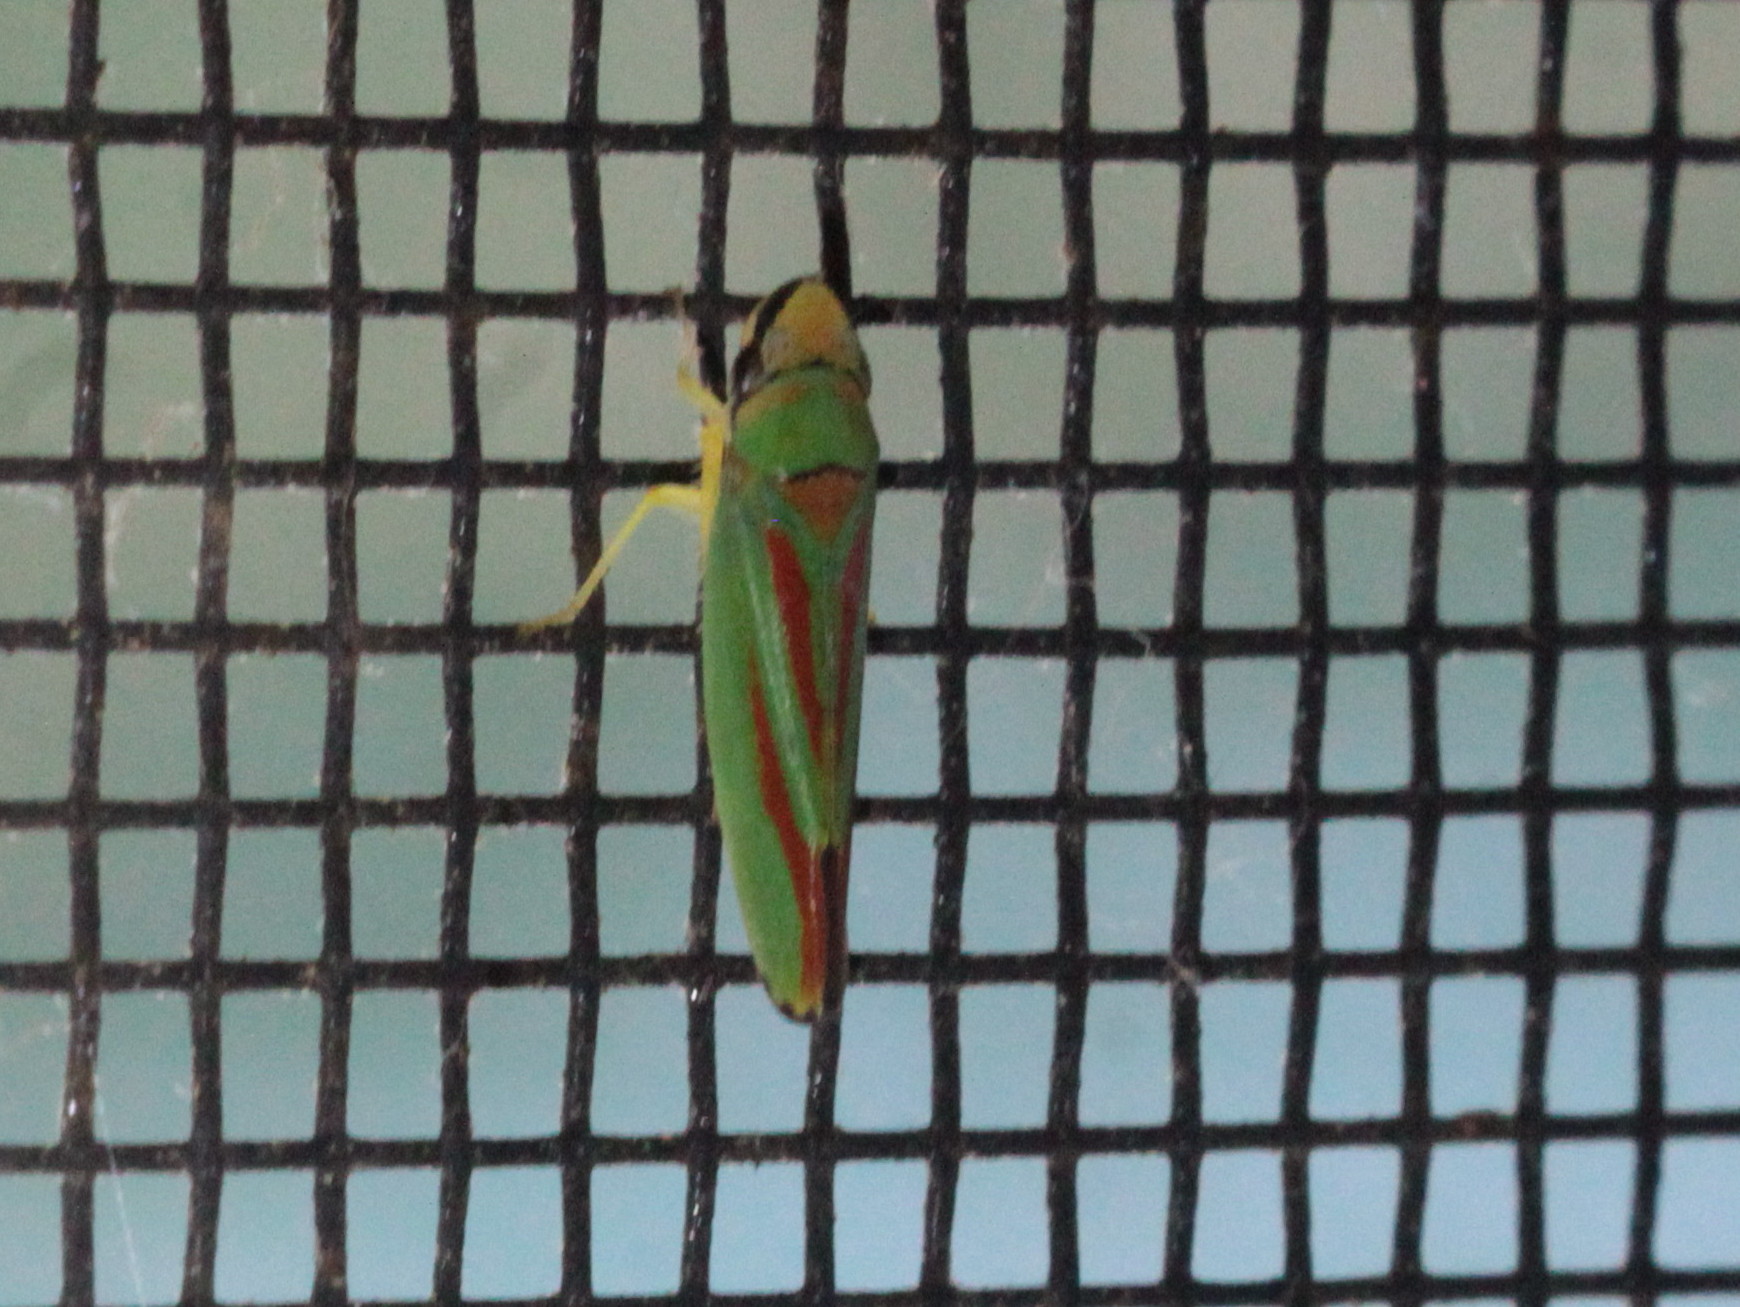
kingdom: Animalia
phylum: Arthropoda
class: Insecta
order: Hemiptera
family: Cicadellidae
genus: Graphocephala
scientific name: Graphocephala fennahi
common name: Rhododendron leafhopper
